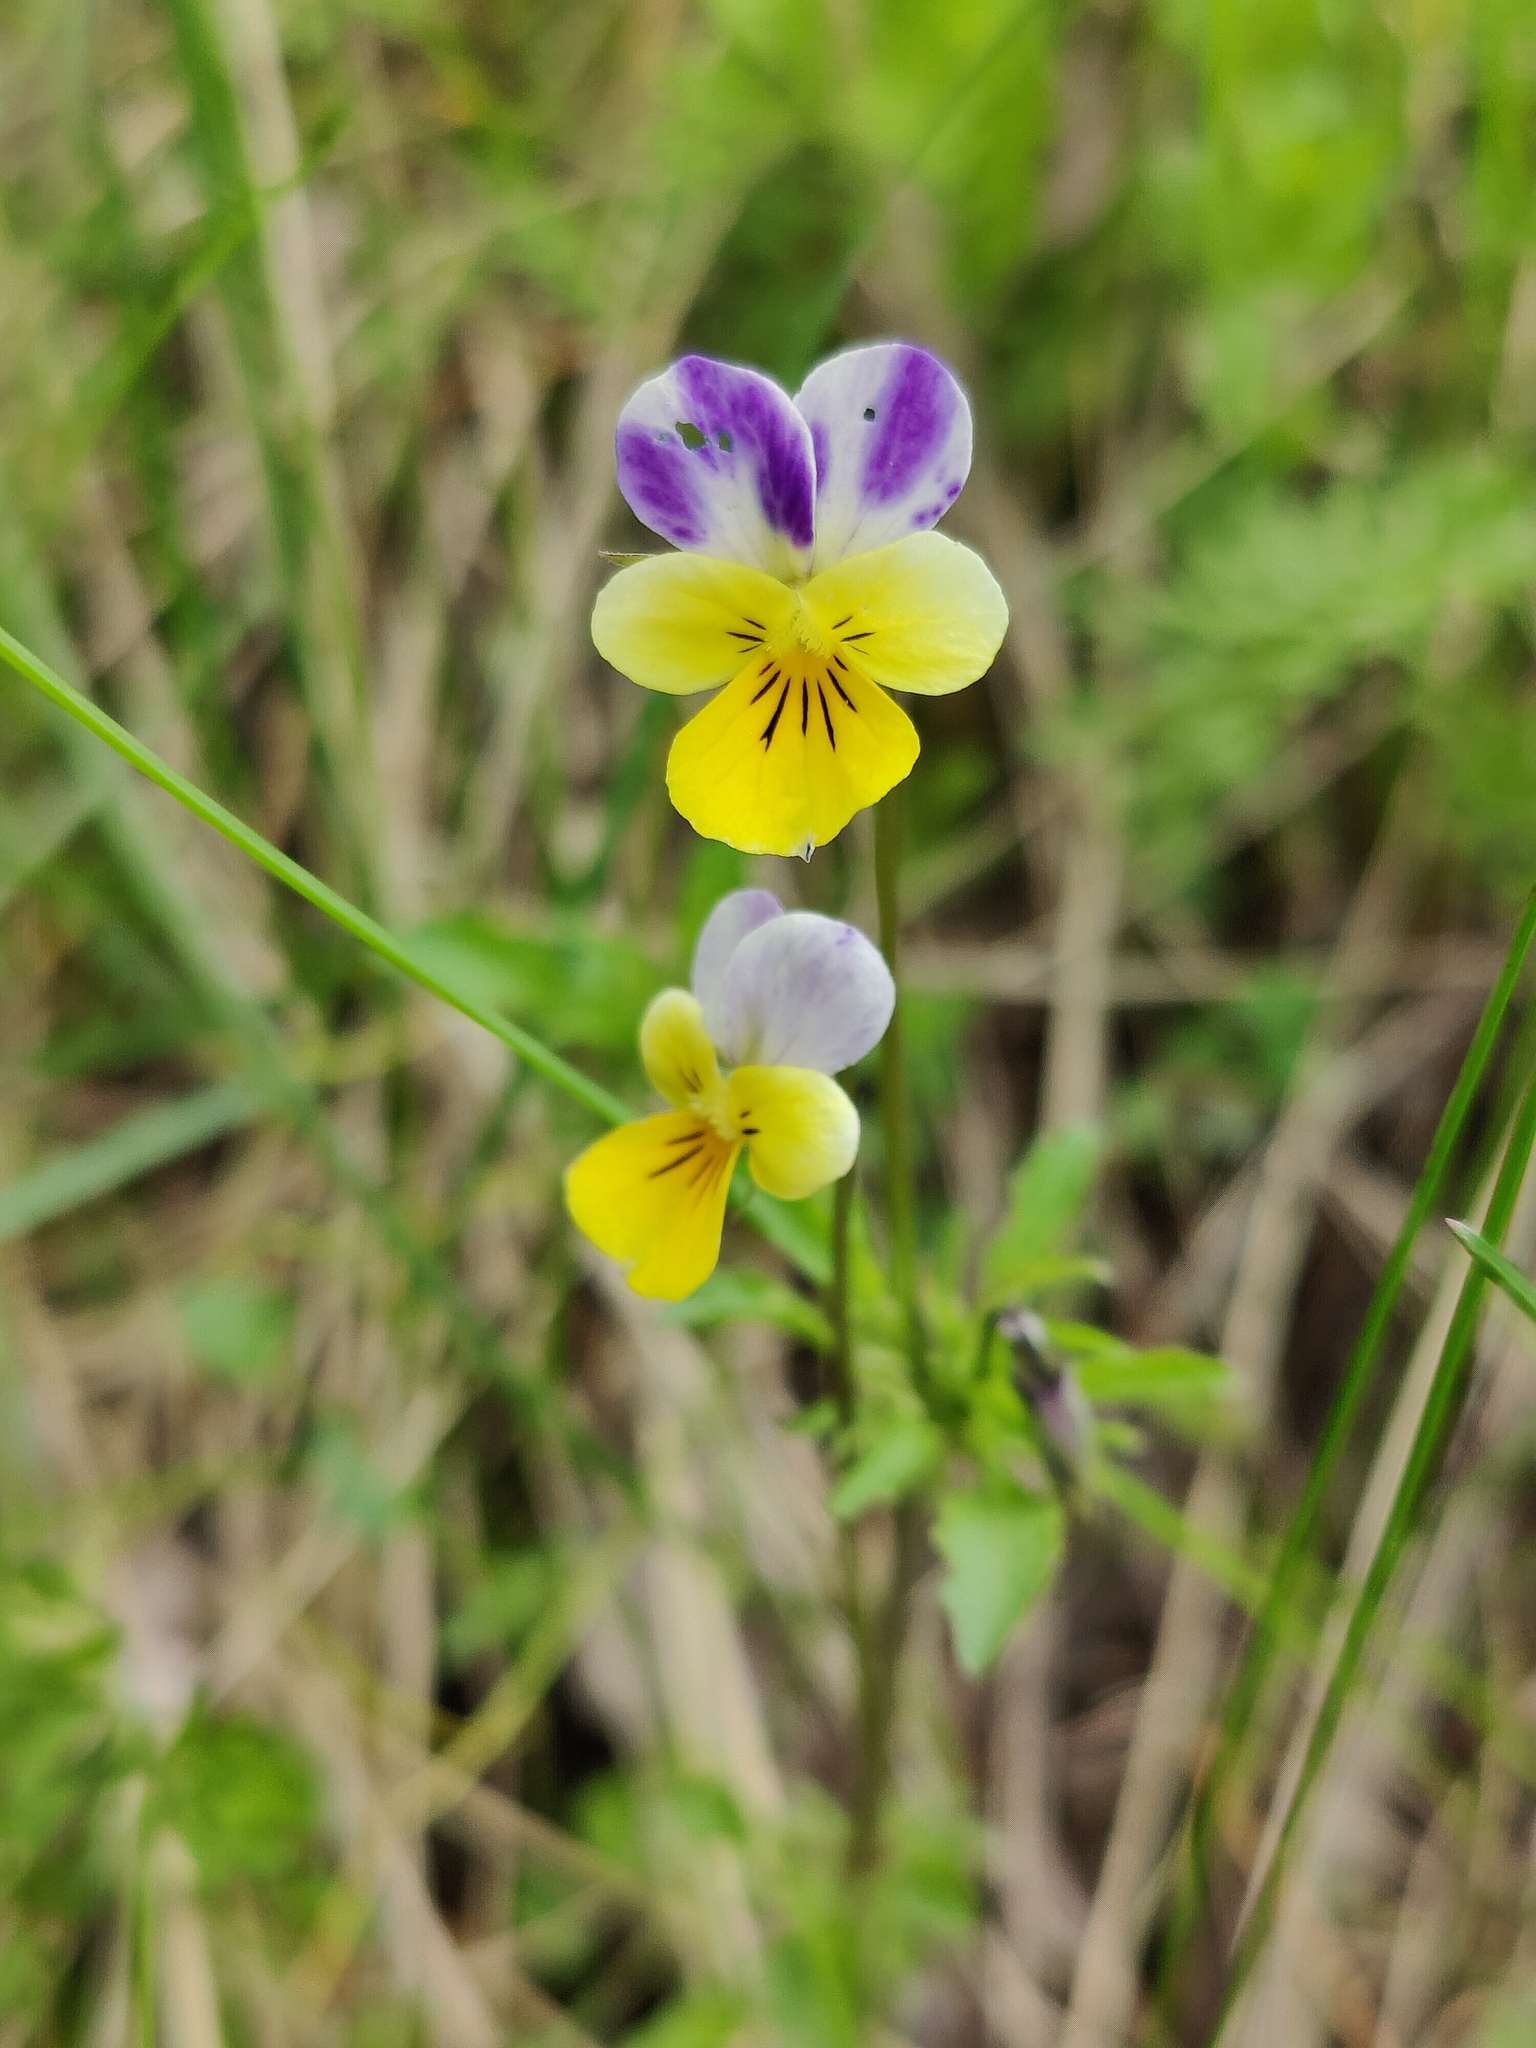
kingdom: Plantae
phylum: Tracheophyta
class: Magnoliopsida
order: Malpighiales
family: Violaceae
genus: Viola
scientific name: Viola tricolor
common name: Pansy
